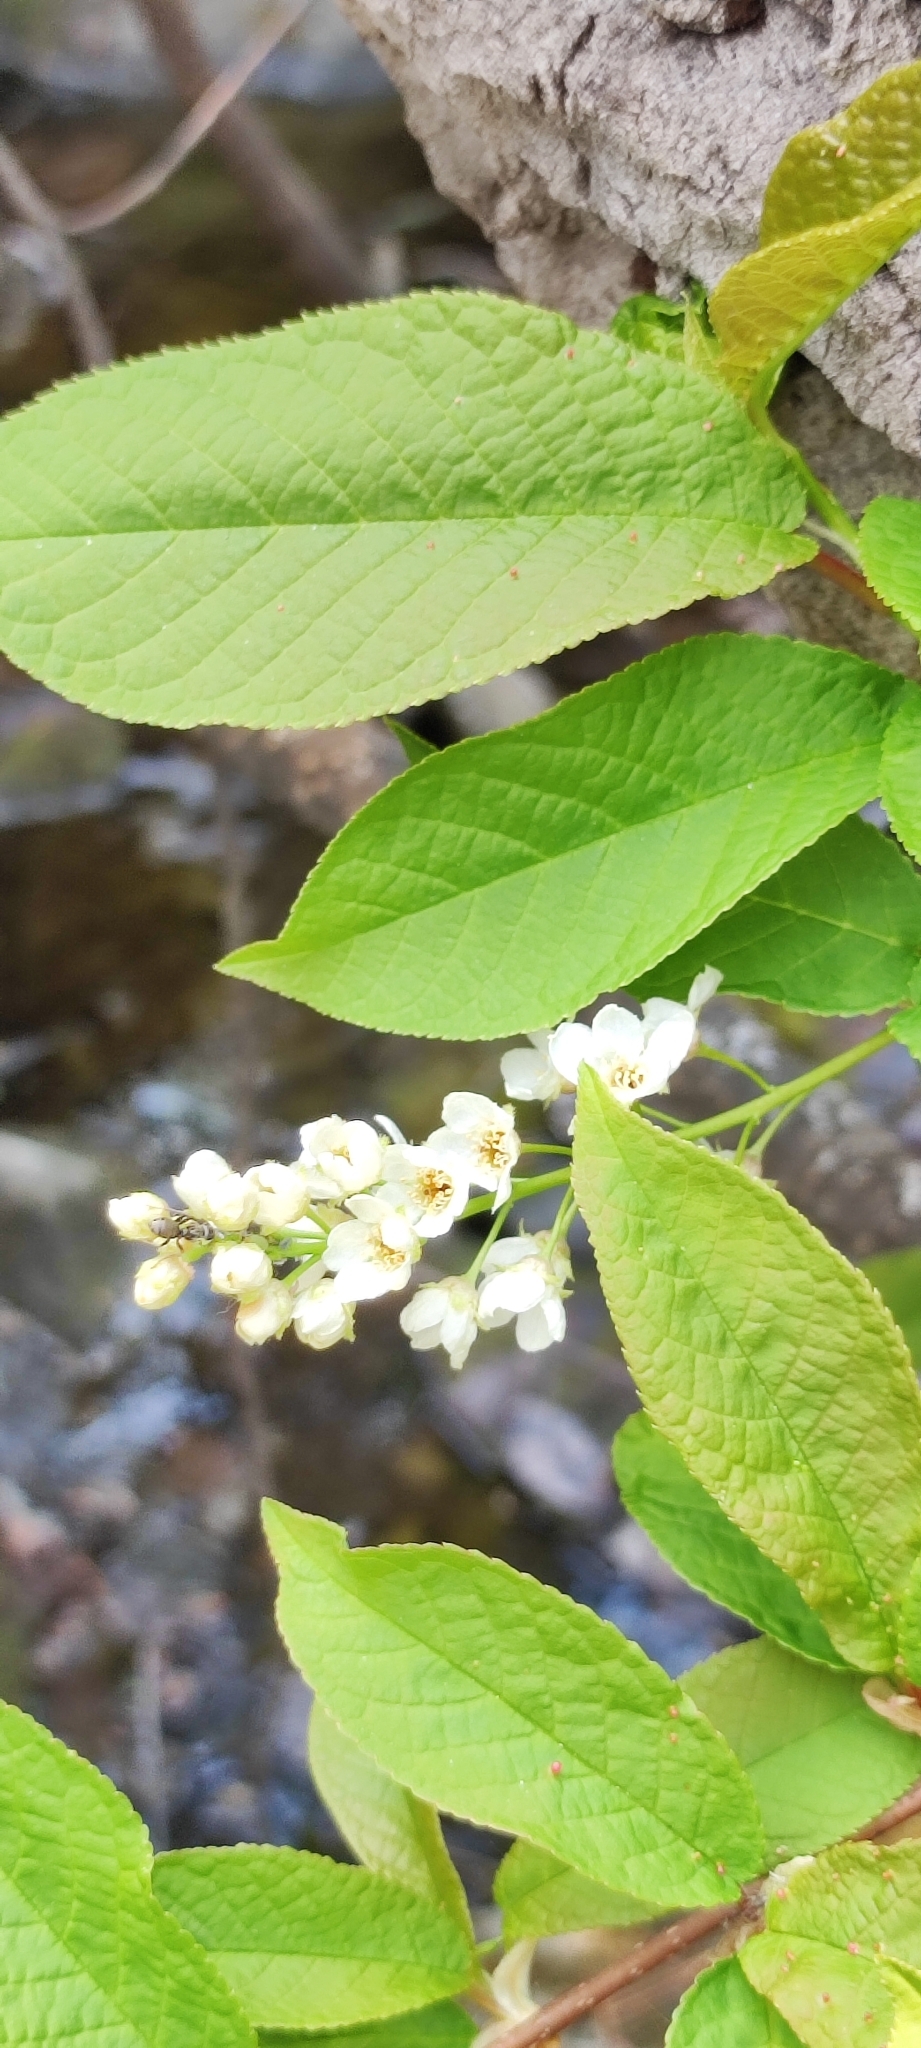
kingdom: Plantae
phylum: Tracheophyta
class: Magnoliopsida
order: Rosales
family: Rosaceae
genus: Prunus
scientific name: Prunus padus
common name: Bird cherry
